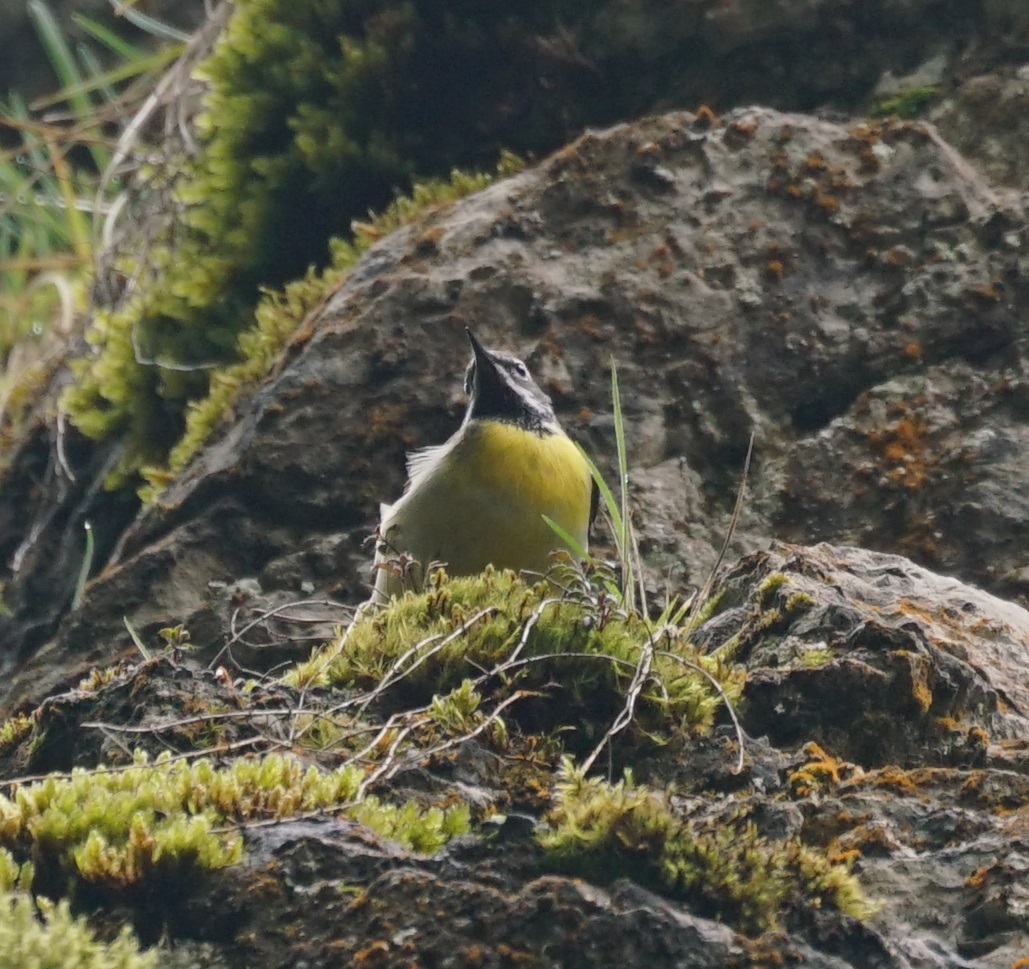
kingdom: Animalia
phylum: Chordata
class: Aves
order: Passeriformes
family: Motacillidae
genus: Motacilla
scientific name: Motacilla cinerea
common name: Grey wagtail
